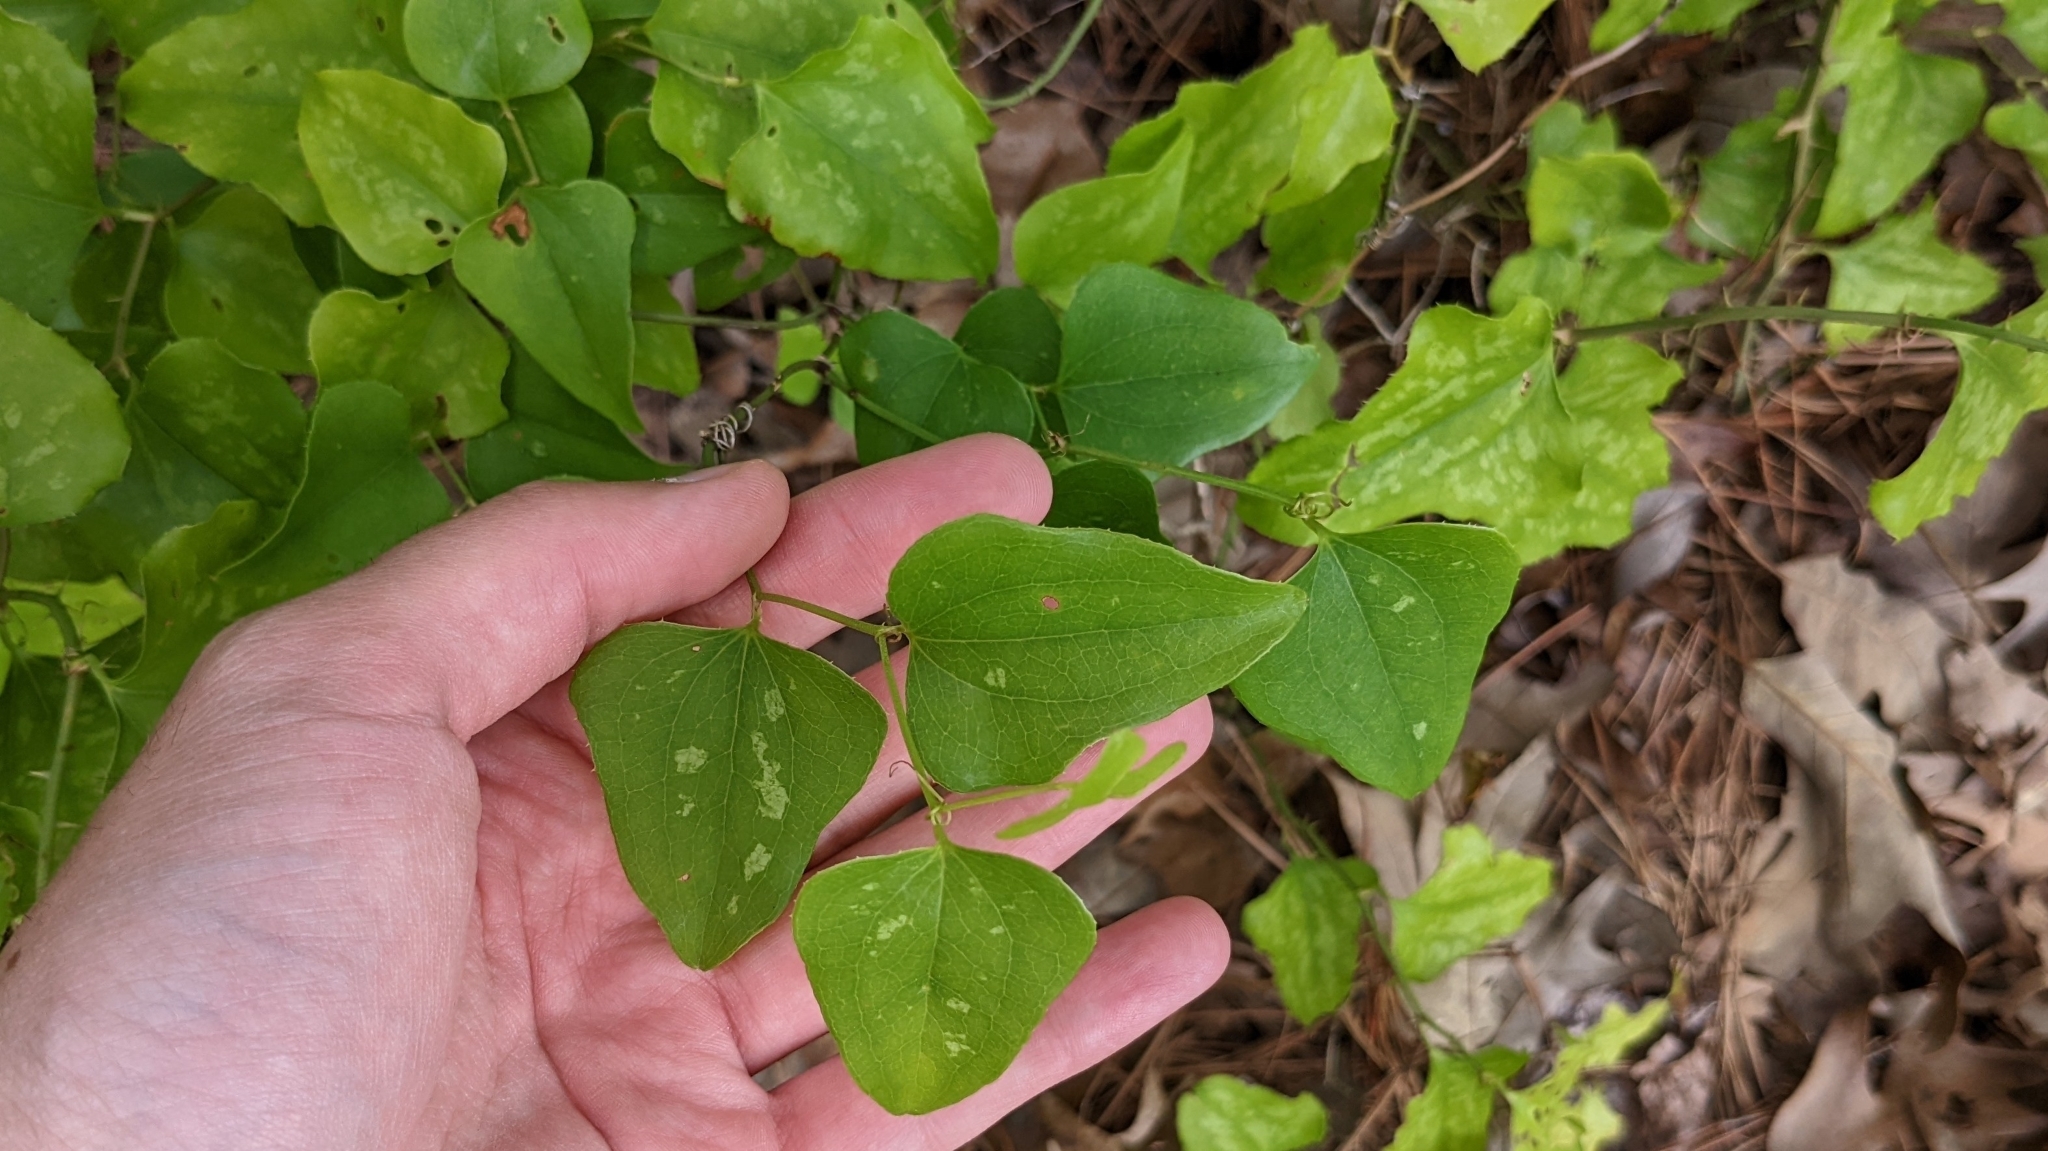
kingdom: Plantae
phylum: Tracheophyta
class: Liliopsida
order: Liliales
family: Smilacaceae
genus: Smilax
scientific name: Smilax bona-nox
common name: Catbrier
